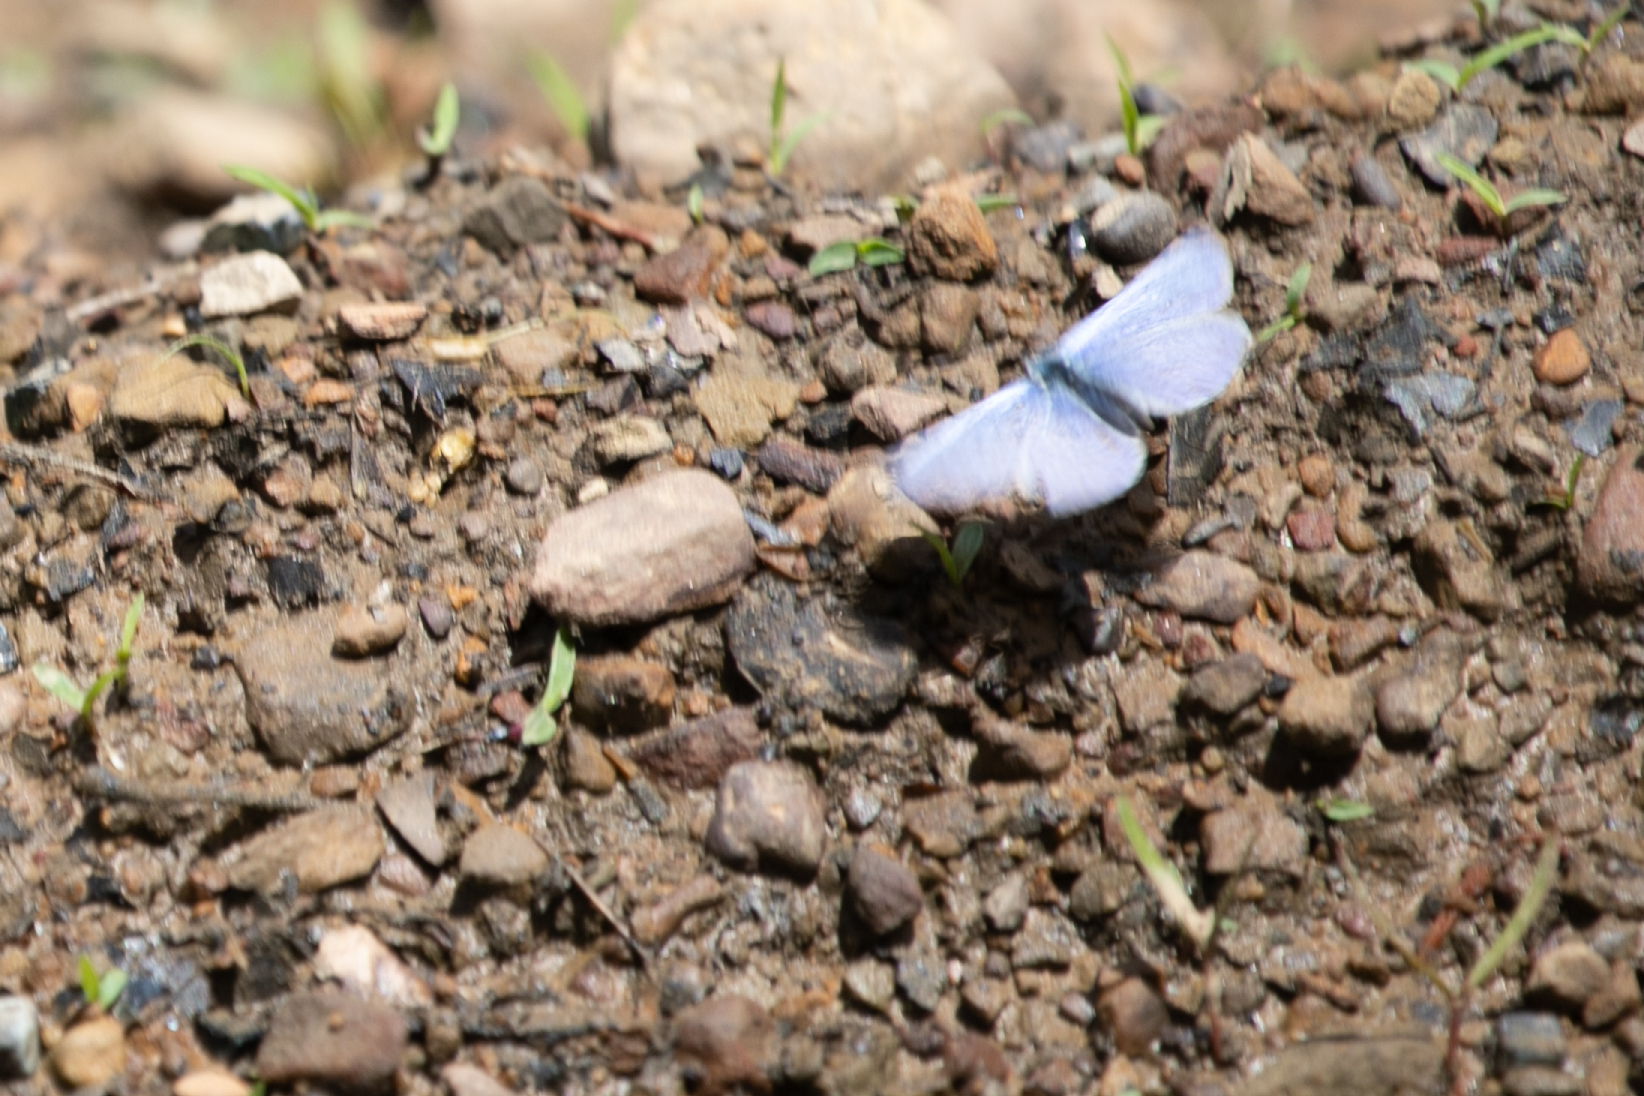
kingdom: Animalia
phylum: Arthropoda
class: Insecta
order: Lepidoptera
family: Lycaenidae
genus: Celastrina
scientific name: Celastrina ladon
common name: Spring azure
